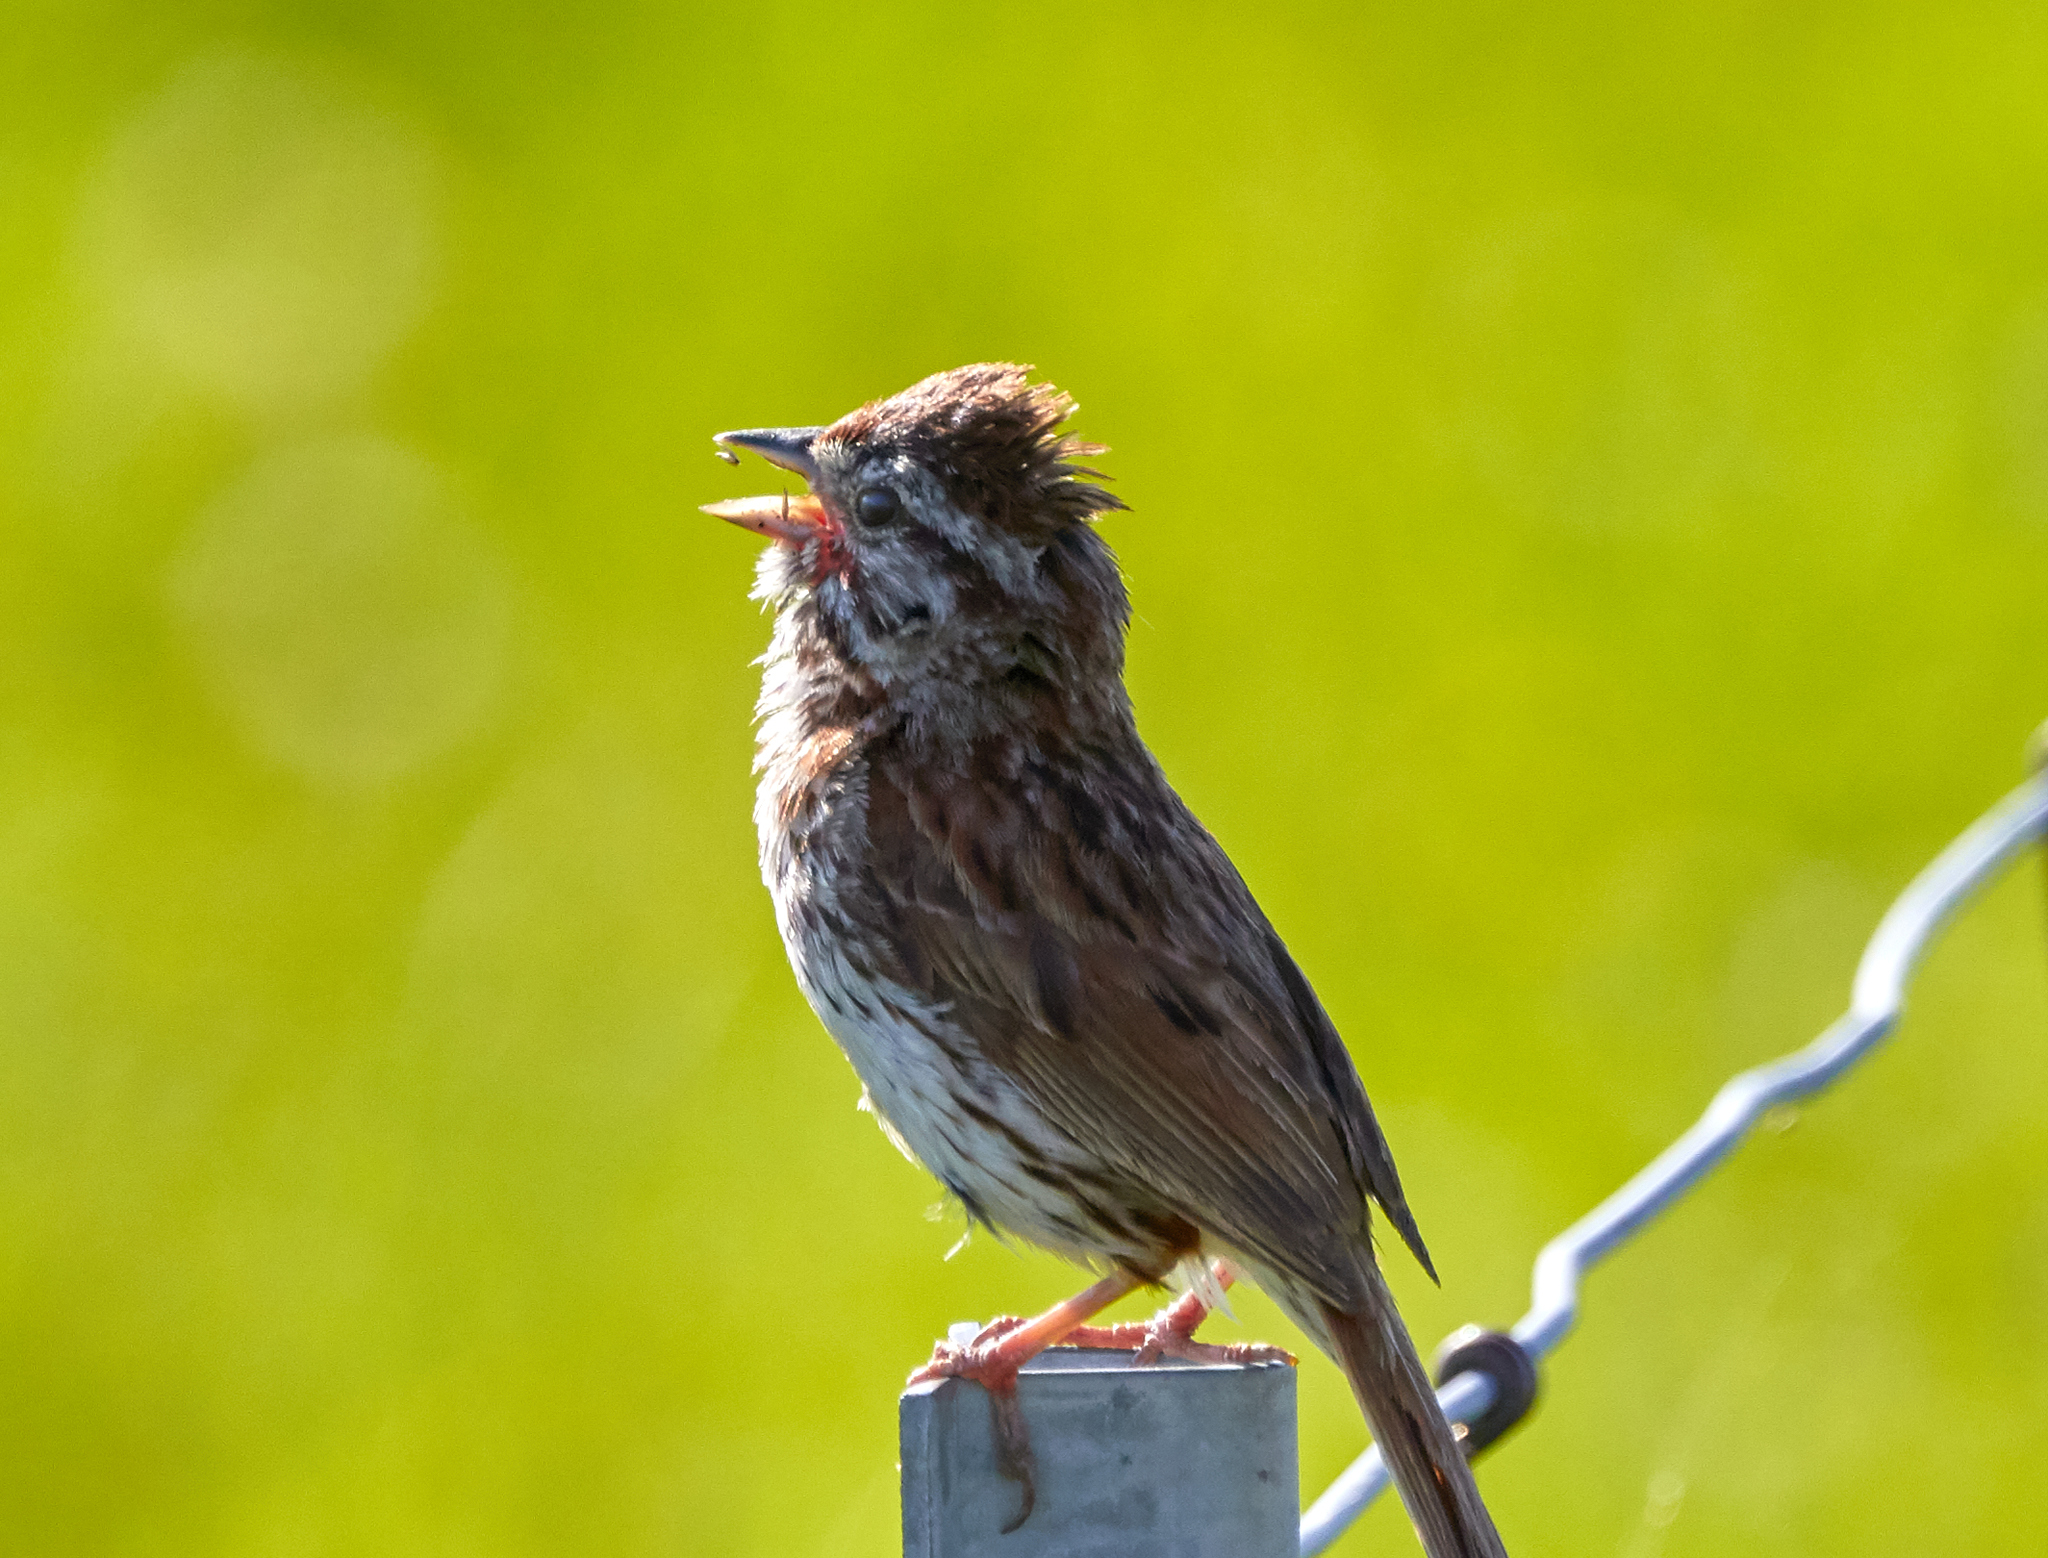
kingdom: Animalia
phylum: Chordata
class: Aves
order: Passeriformes
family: Passerellidae
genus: Melospiza
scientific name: Melospiza melodia
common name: Song sparrow
